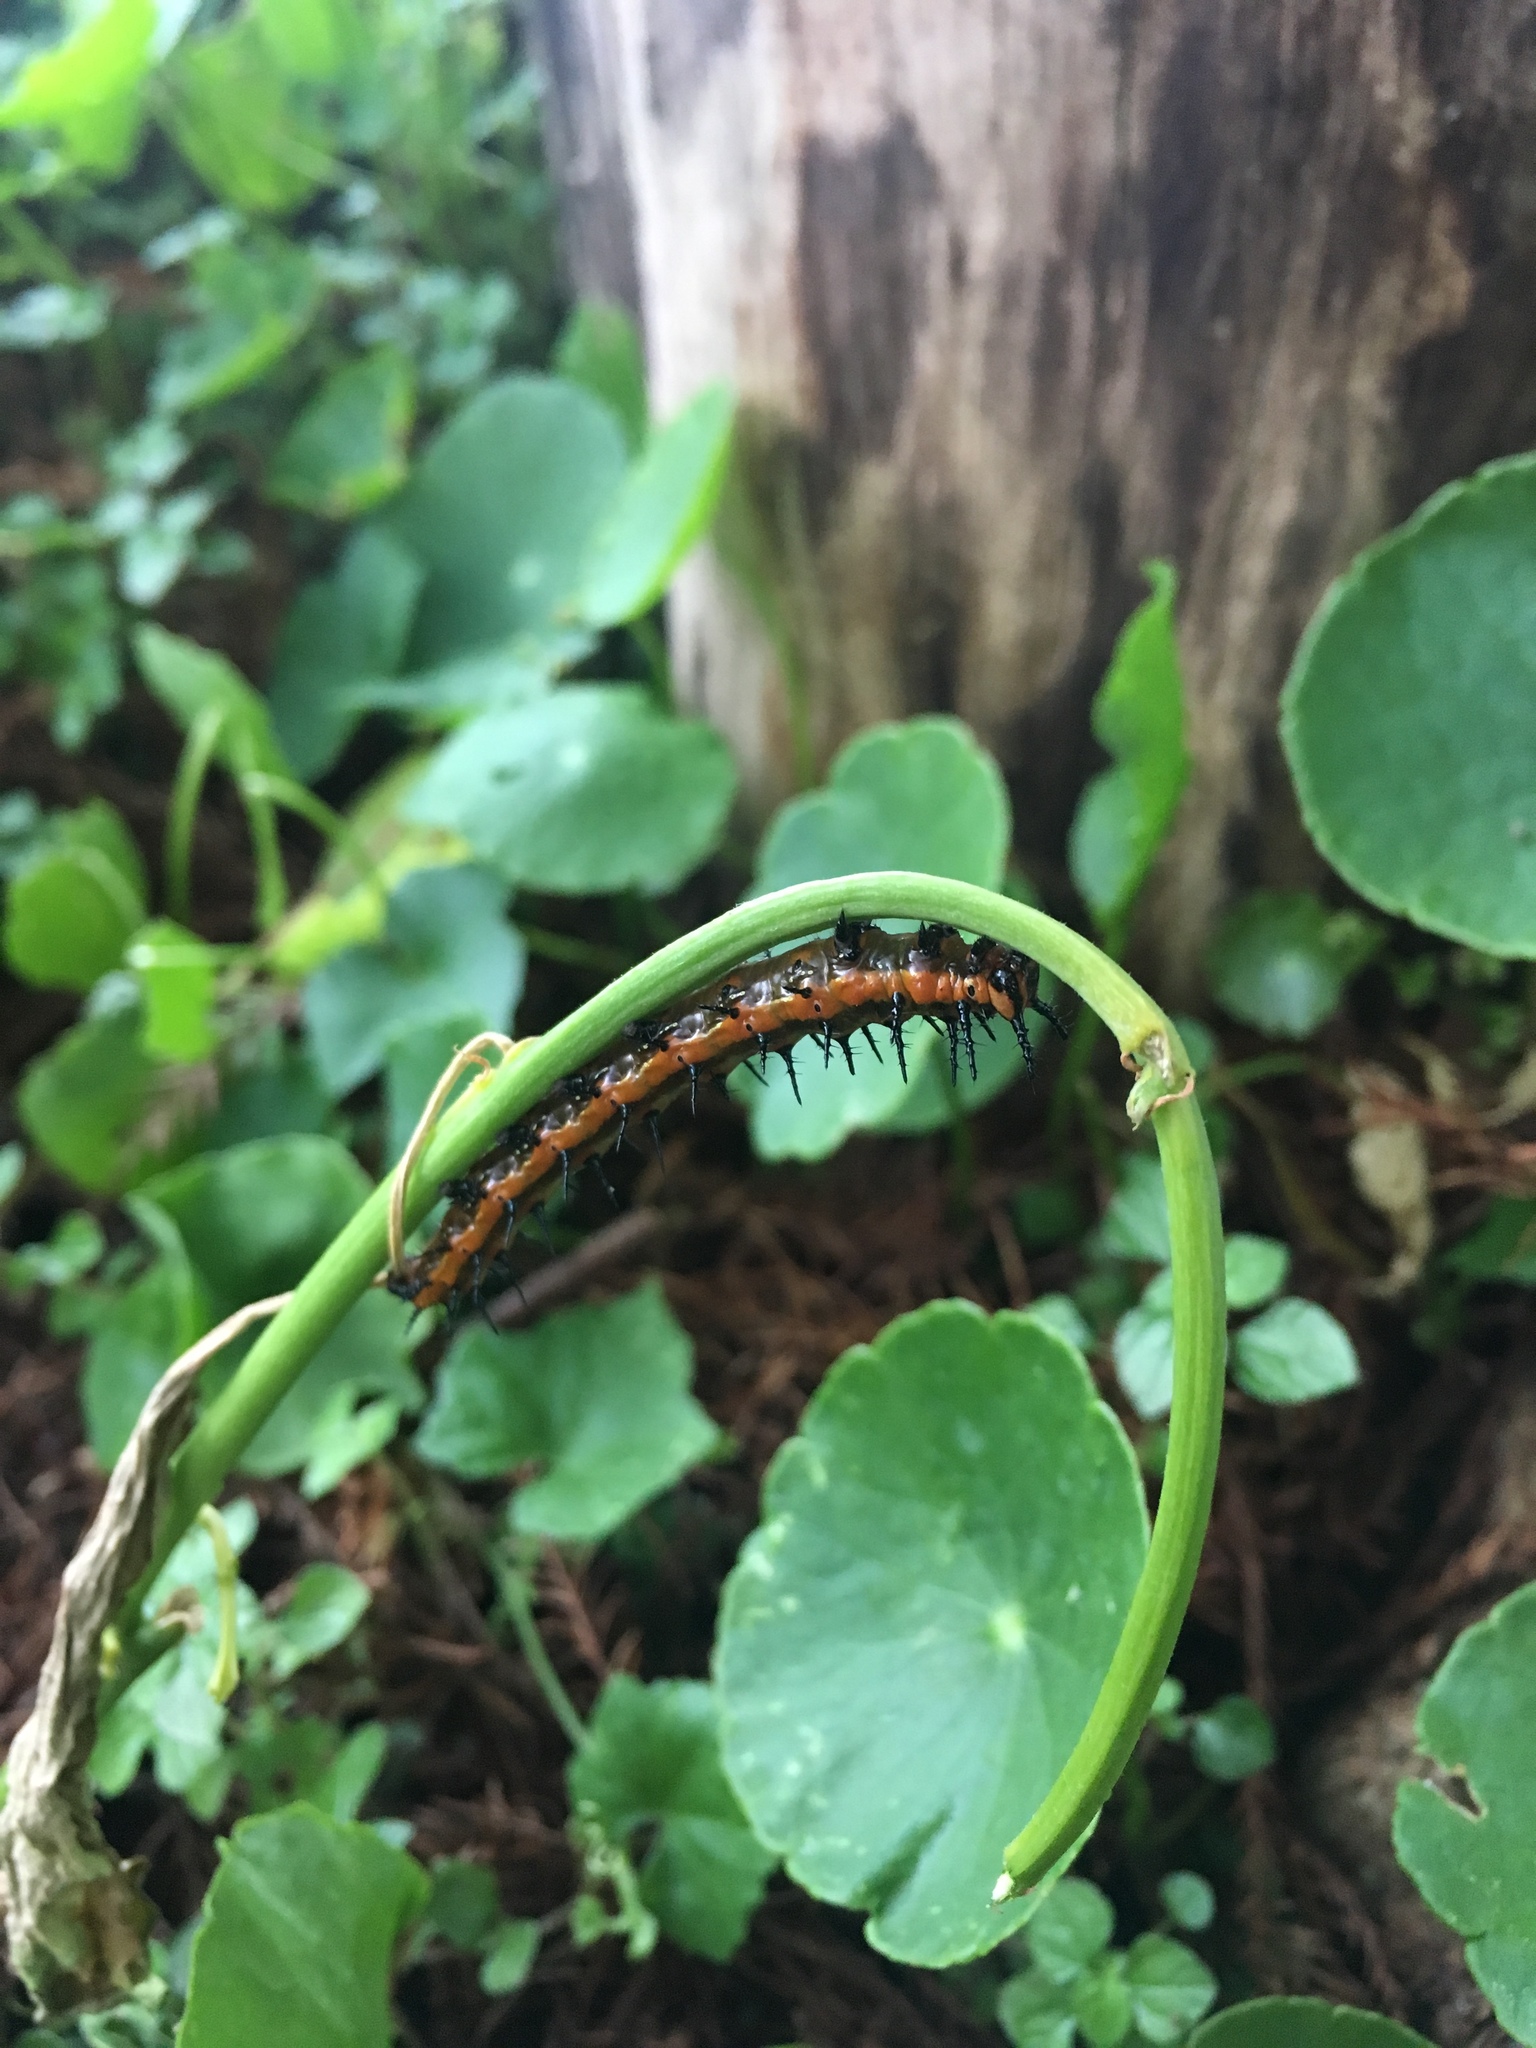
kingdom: Animalia
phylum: Arthropoda
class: Insecta
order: Lepidoptera
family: Nymphalidae
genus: Dione
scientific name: Dione vanillae
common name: Gulf fritillary
